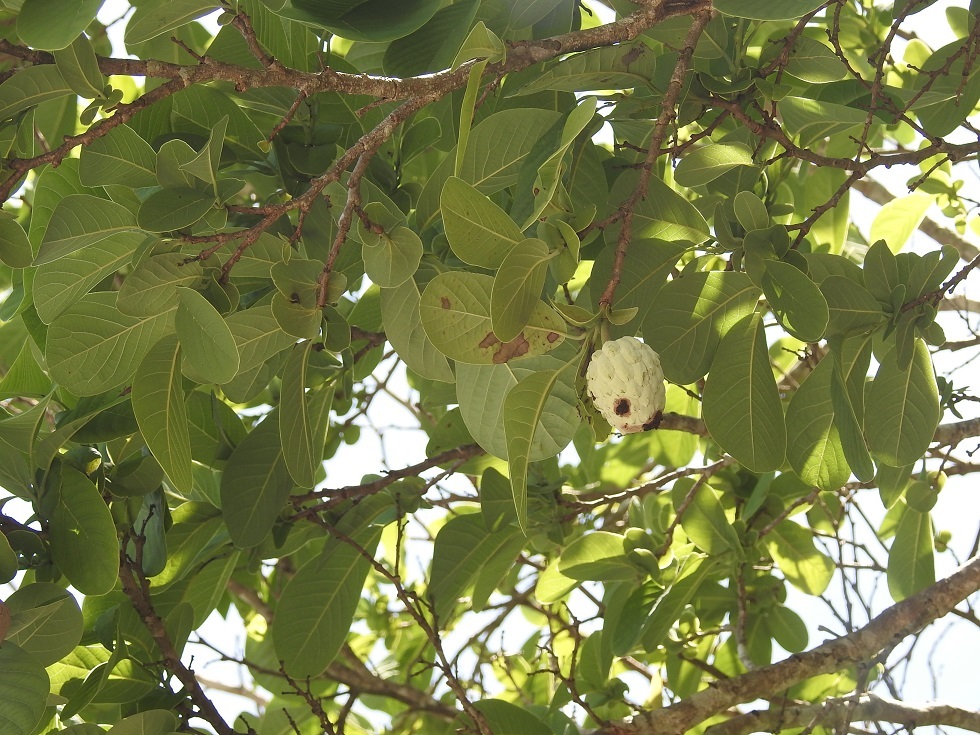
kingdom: Plantae
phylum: Tracheophyta
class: Magnoliopsida
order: Magnoliales
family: Annonaceae
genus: Annona
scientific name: Annona macroprophyllata
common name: Ilama
